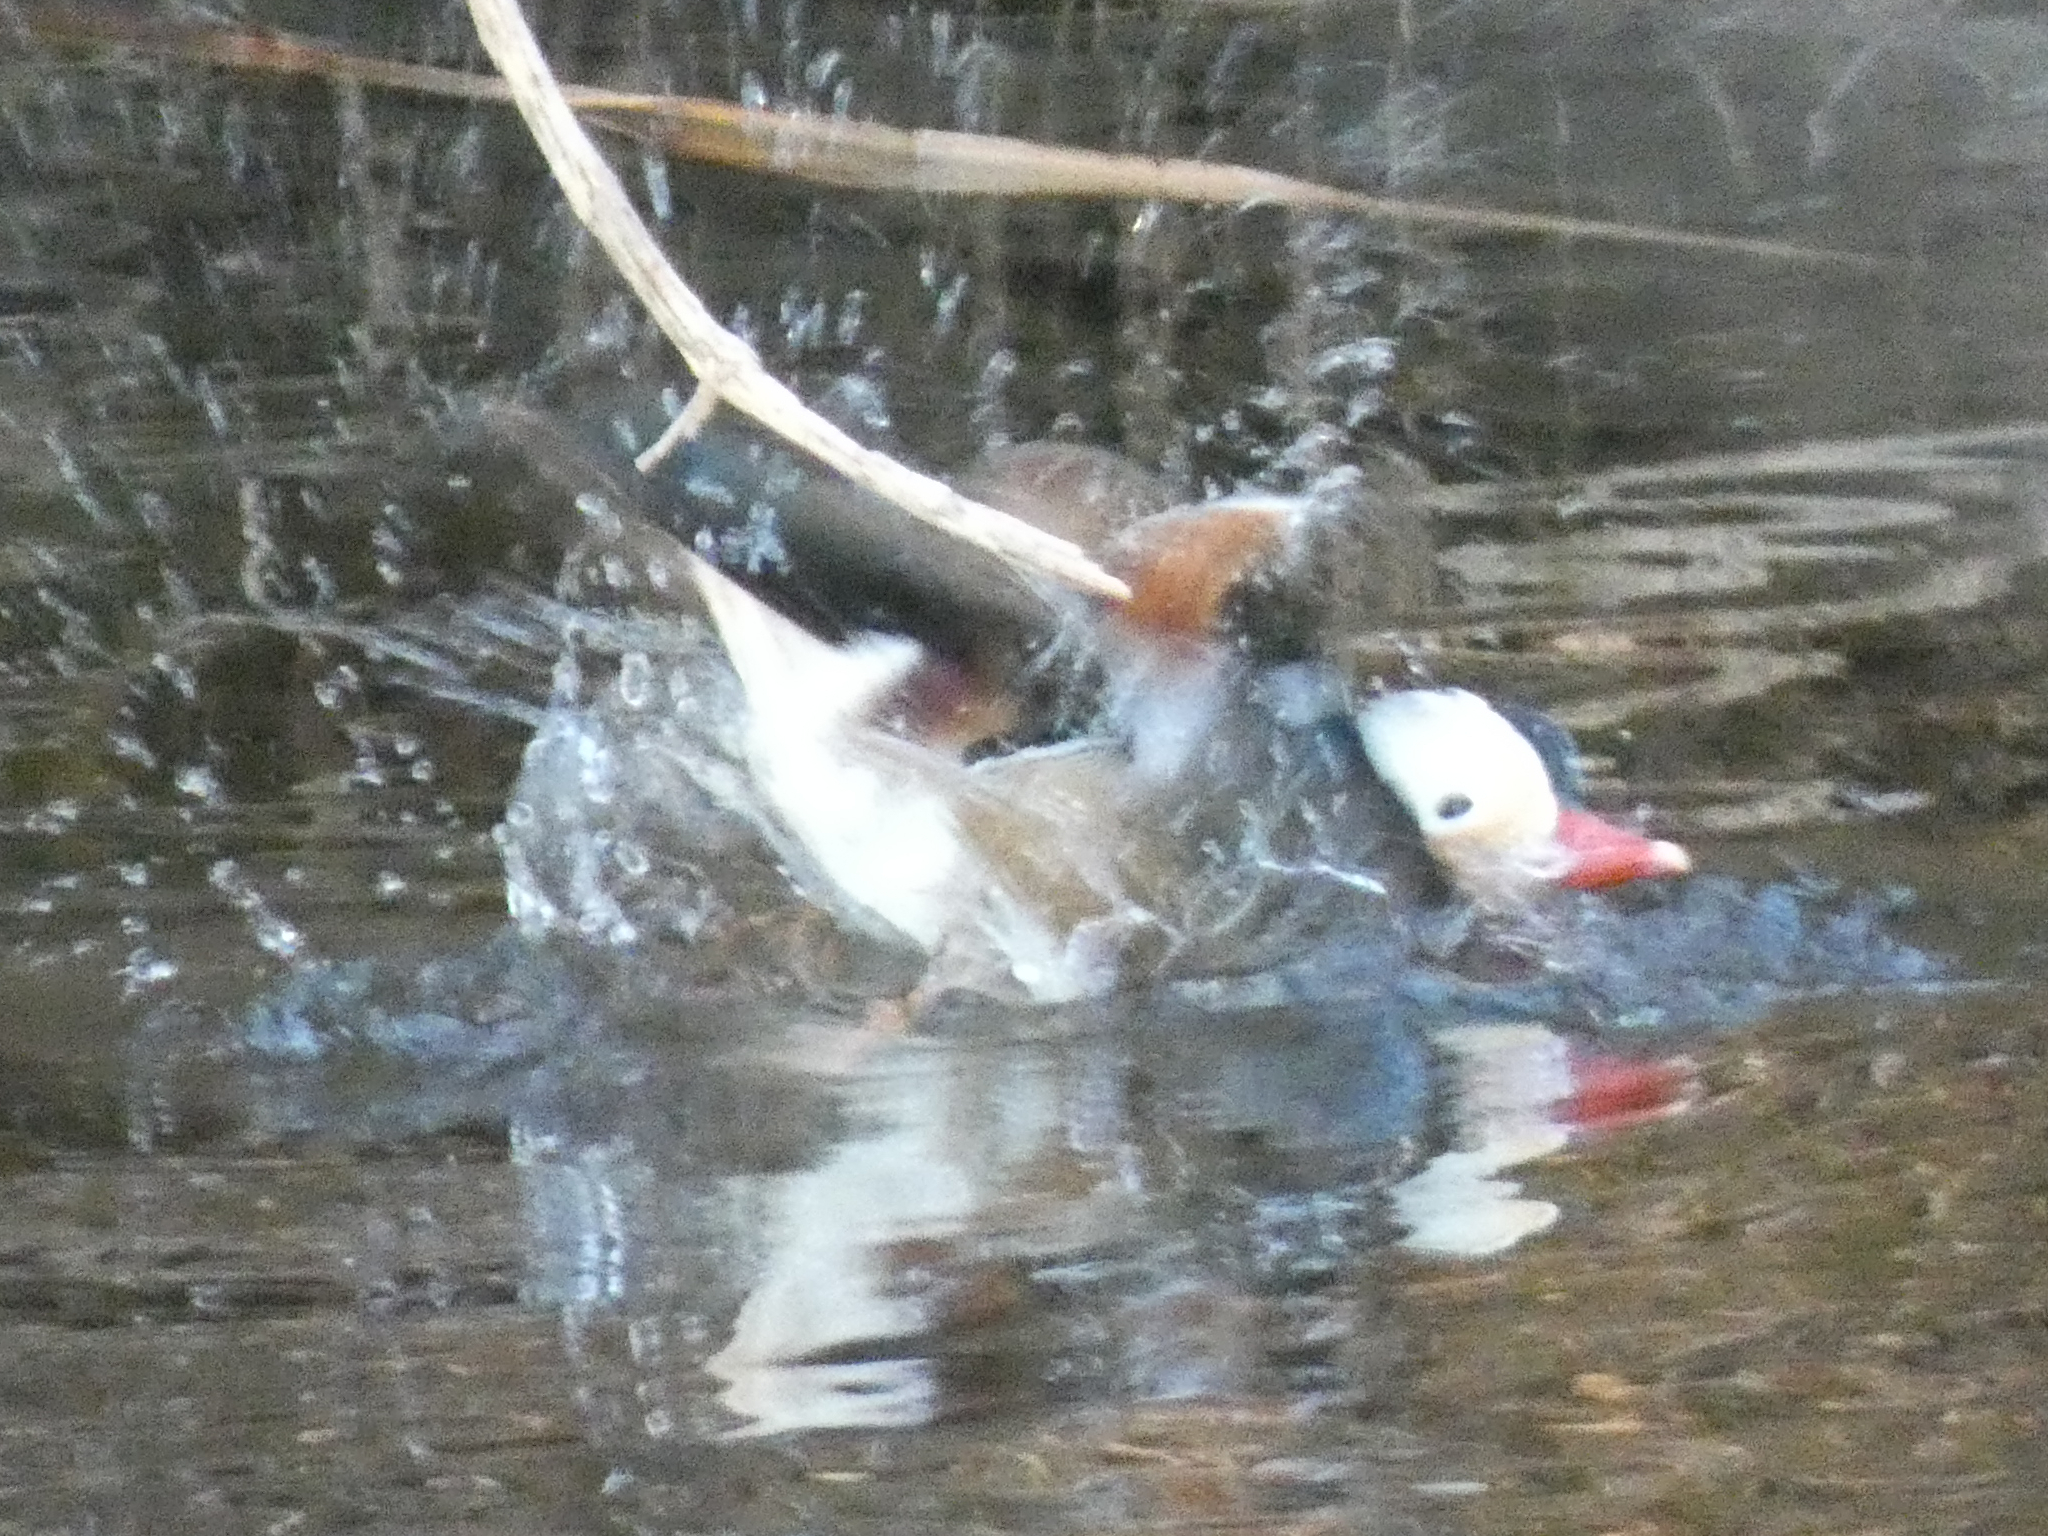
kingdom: Animalia
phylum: Chordata
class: Aves
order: Anseriformes
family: Anatidae
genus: Aix
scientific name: Aix galericulata
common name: Mandarin duck
